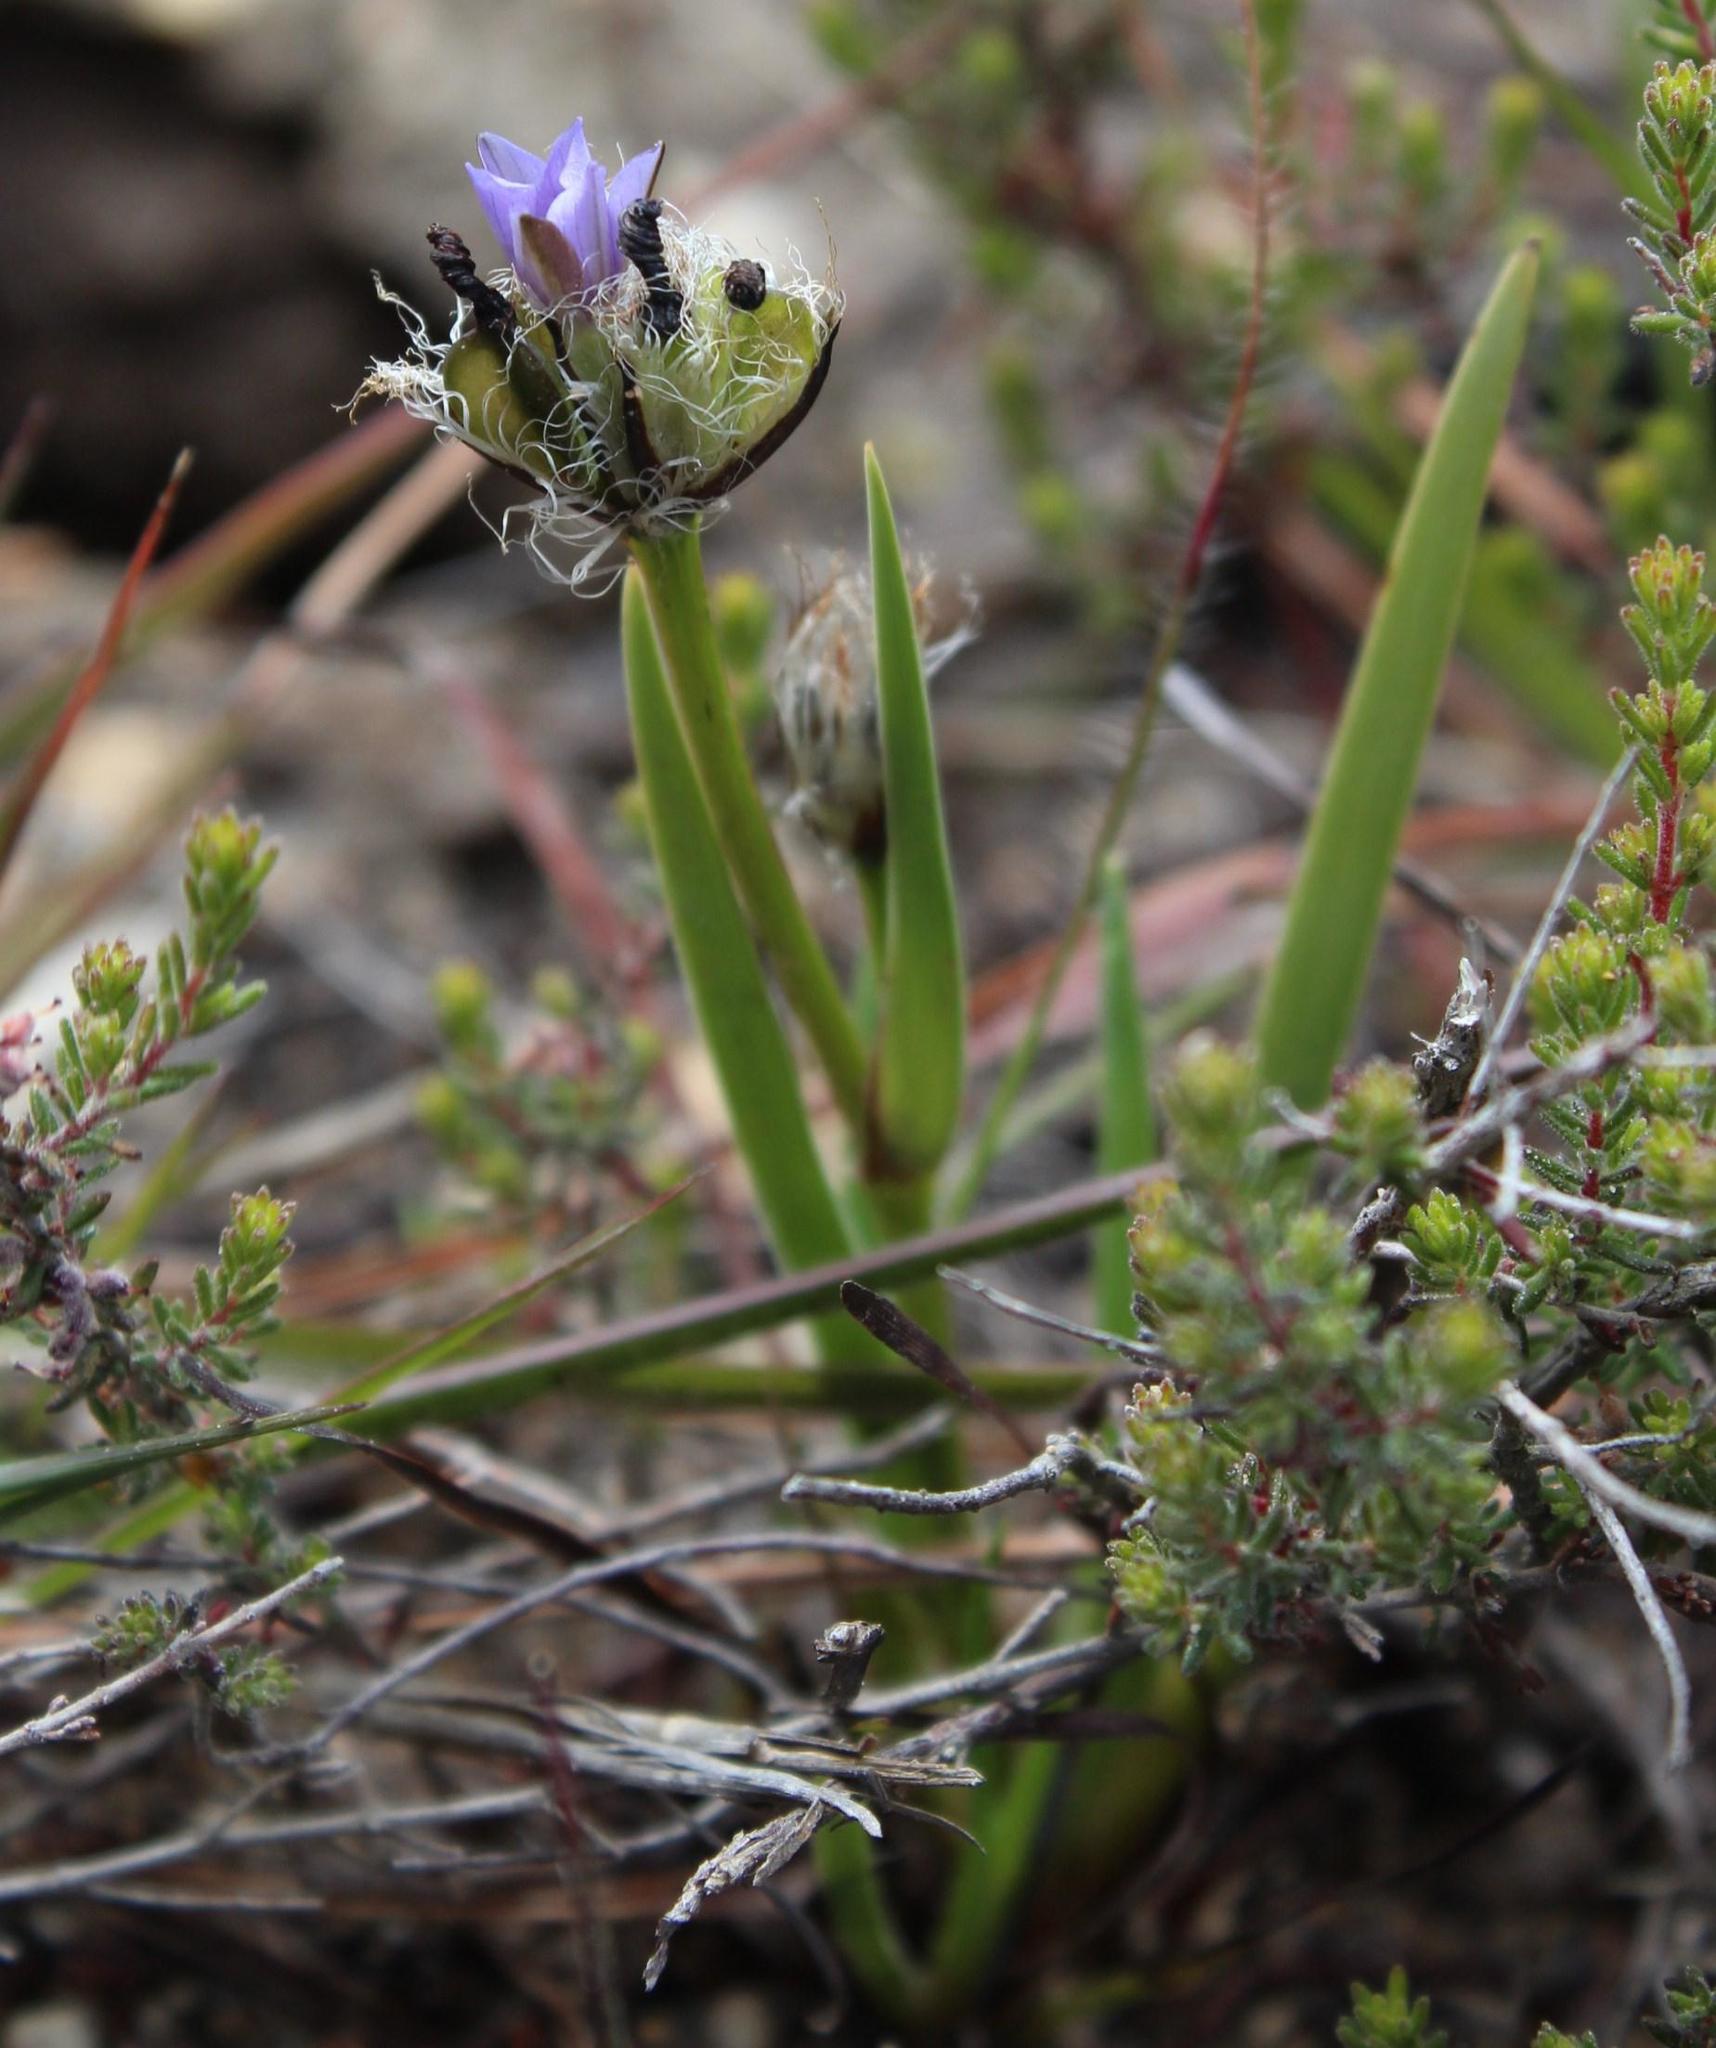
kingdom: Plantae
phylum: Tracheophyta
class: Liliopsida
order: Asparagales
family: Iridaceae
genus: Aristea
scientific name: Aristea africana
